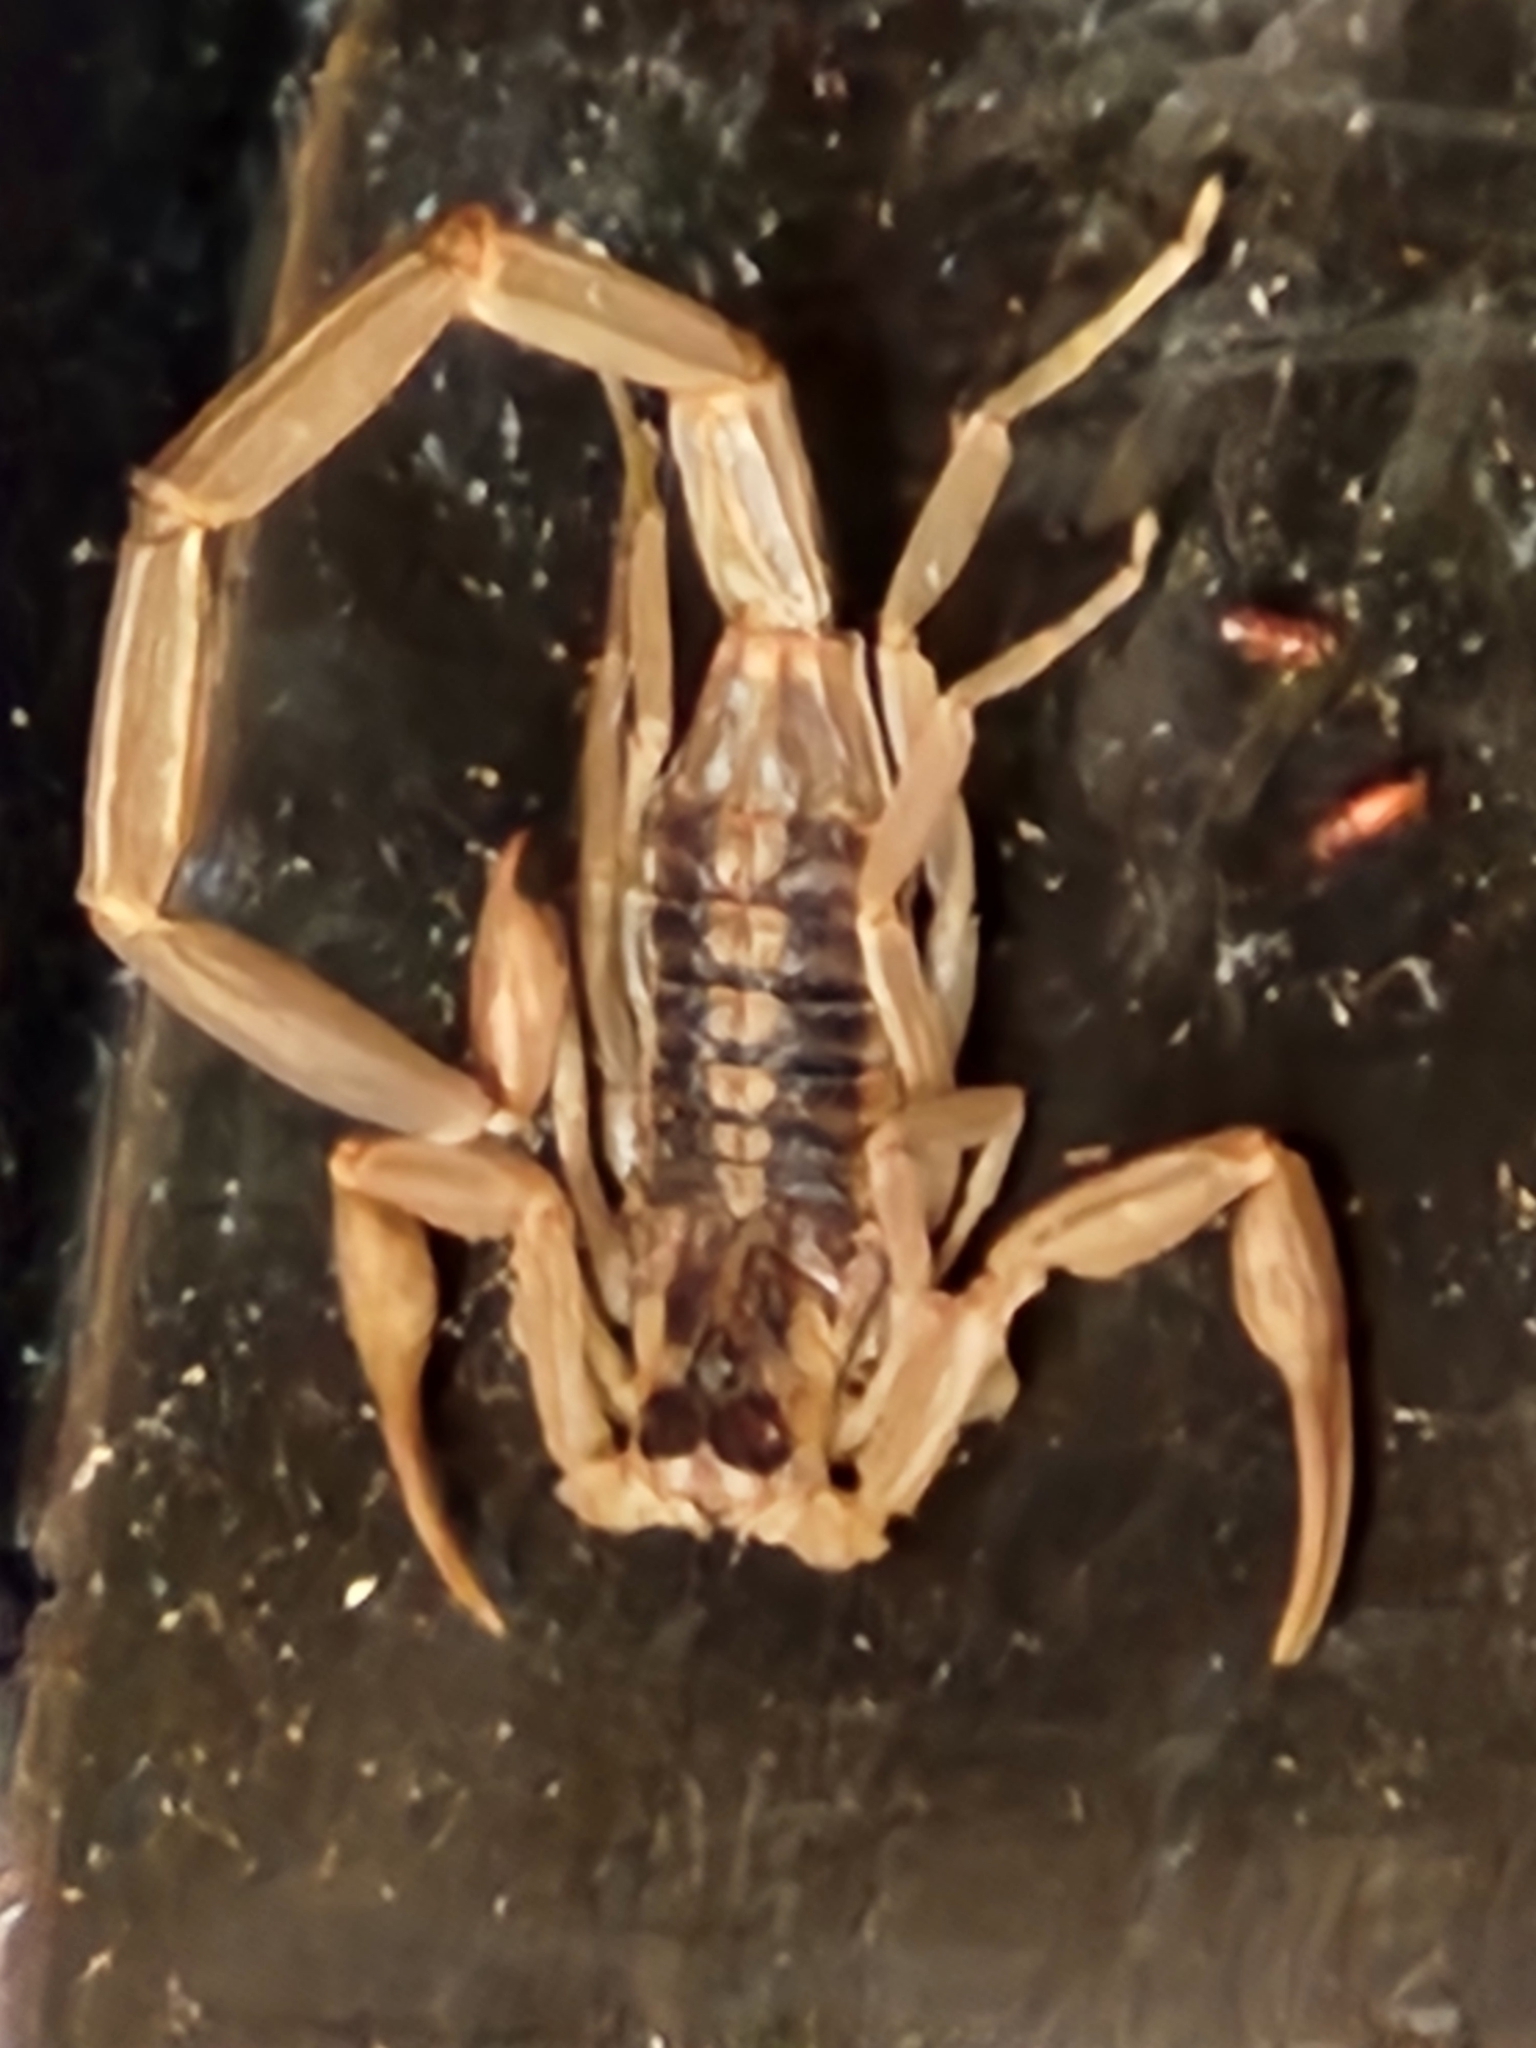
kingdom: Animalia
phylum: Arthropoda
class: Arachnida
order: Scorpiones
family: Buthidae
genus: Centruroides
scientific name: Centruroides vittatus
